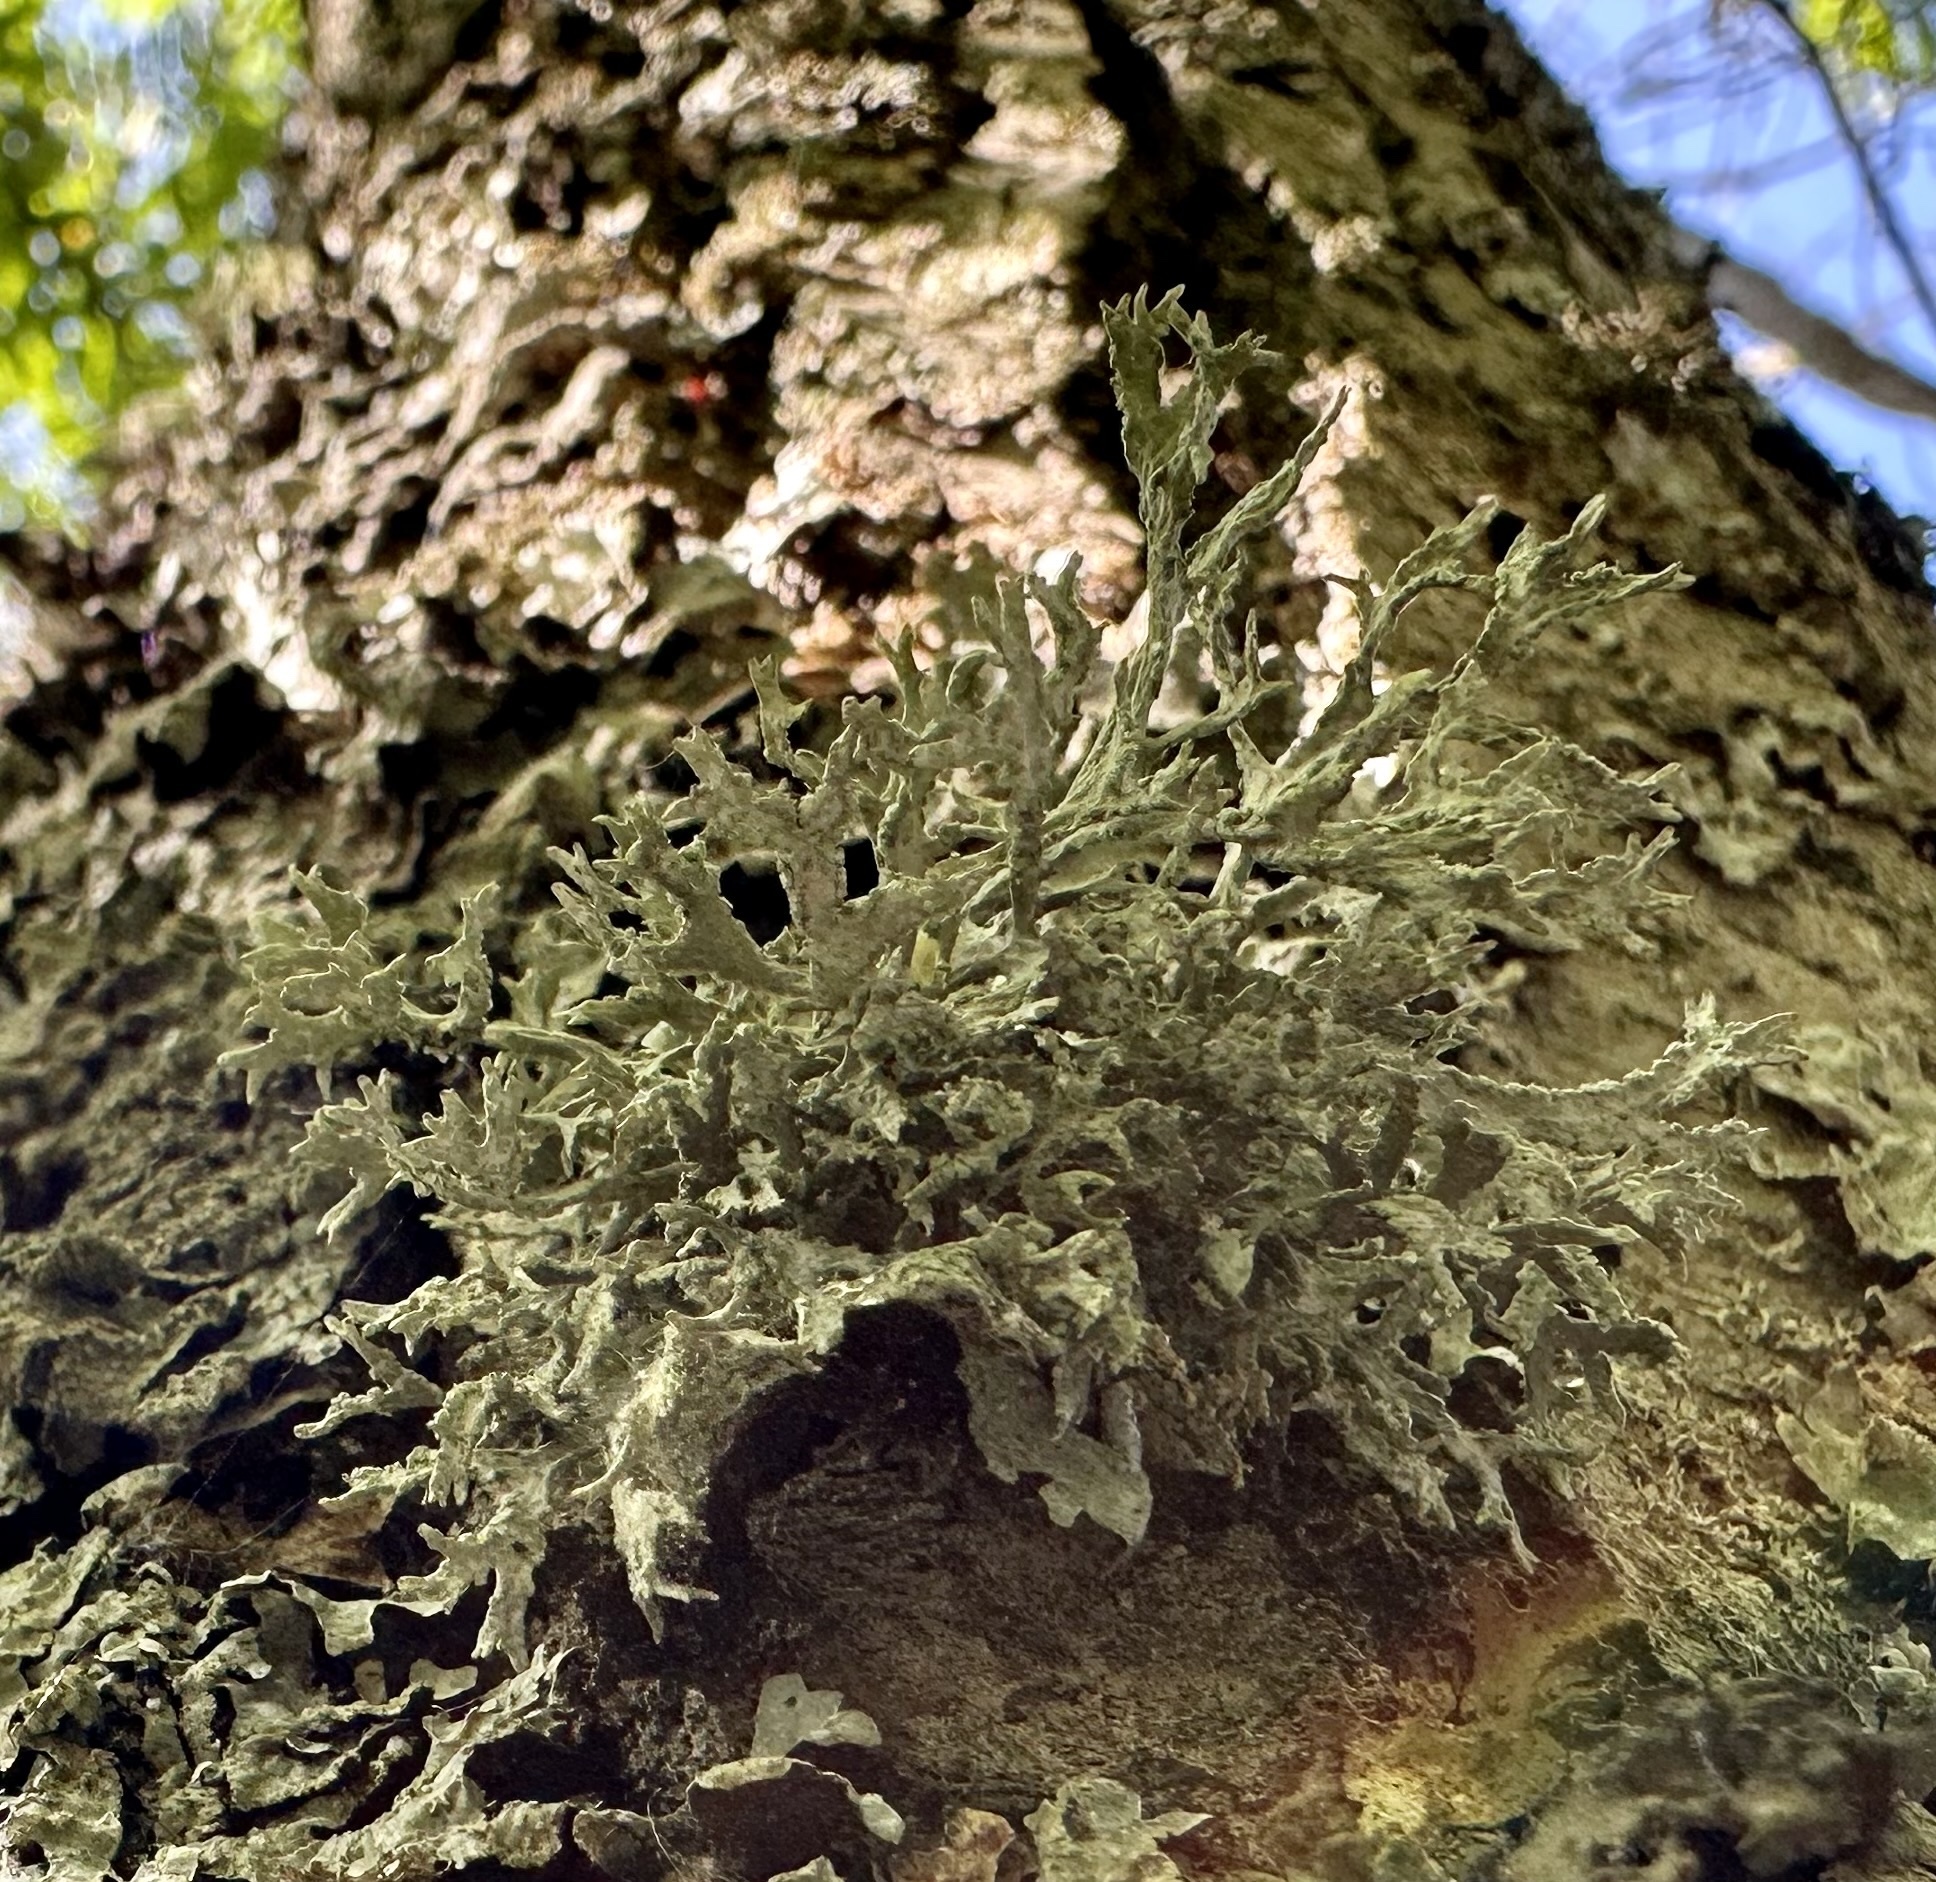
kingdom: Fungi
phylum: Ascomycota
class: Lecanoromycetes
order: Lecanorales
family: Parmeliaceae
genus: Evernia
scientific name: Evernia prunastri
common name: Oak moss
